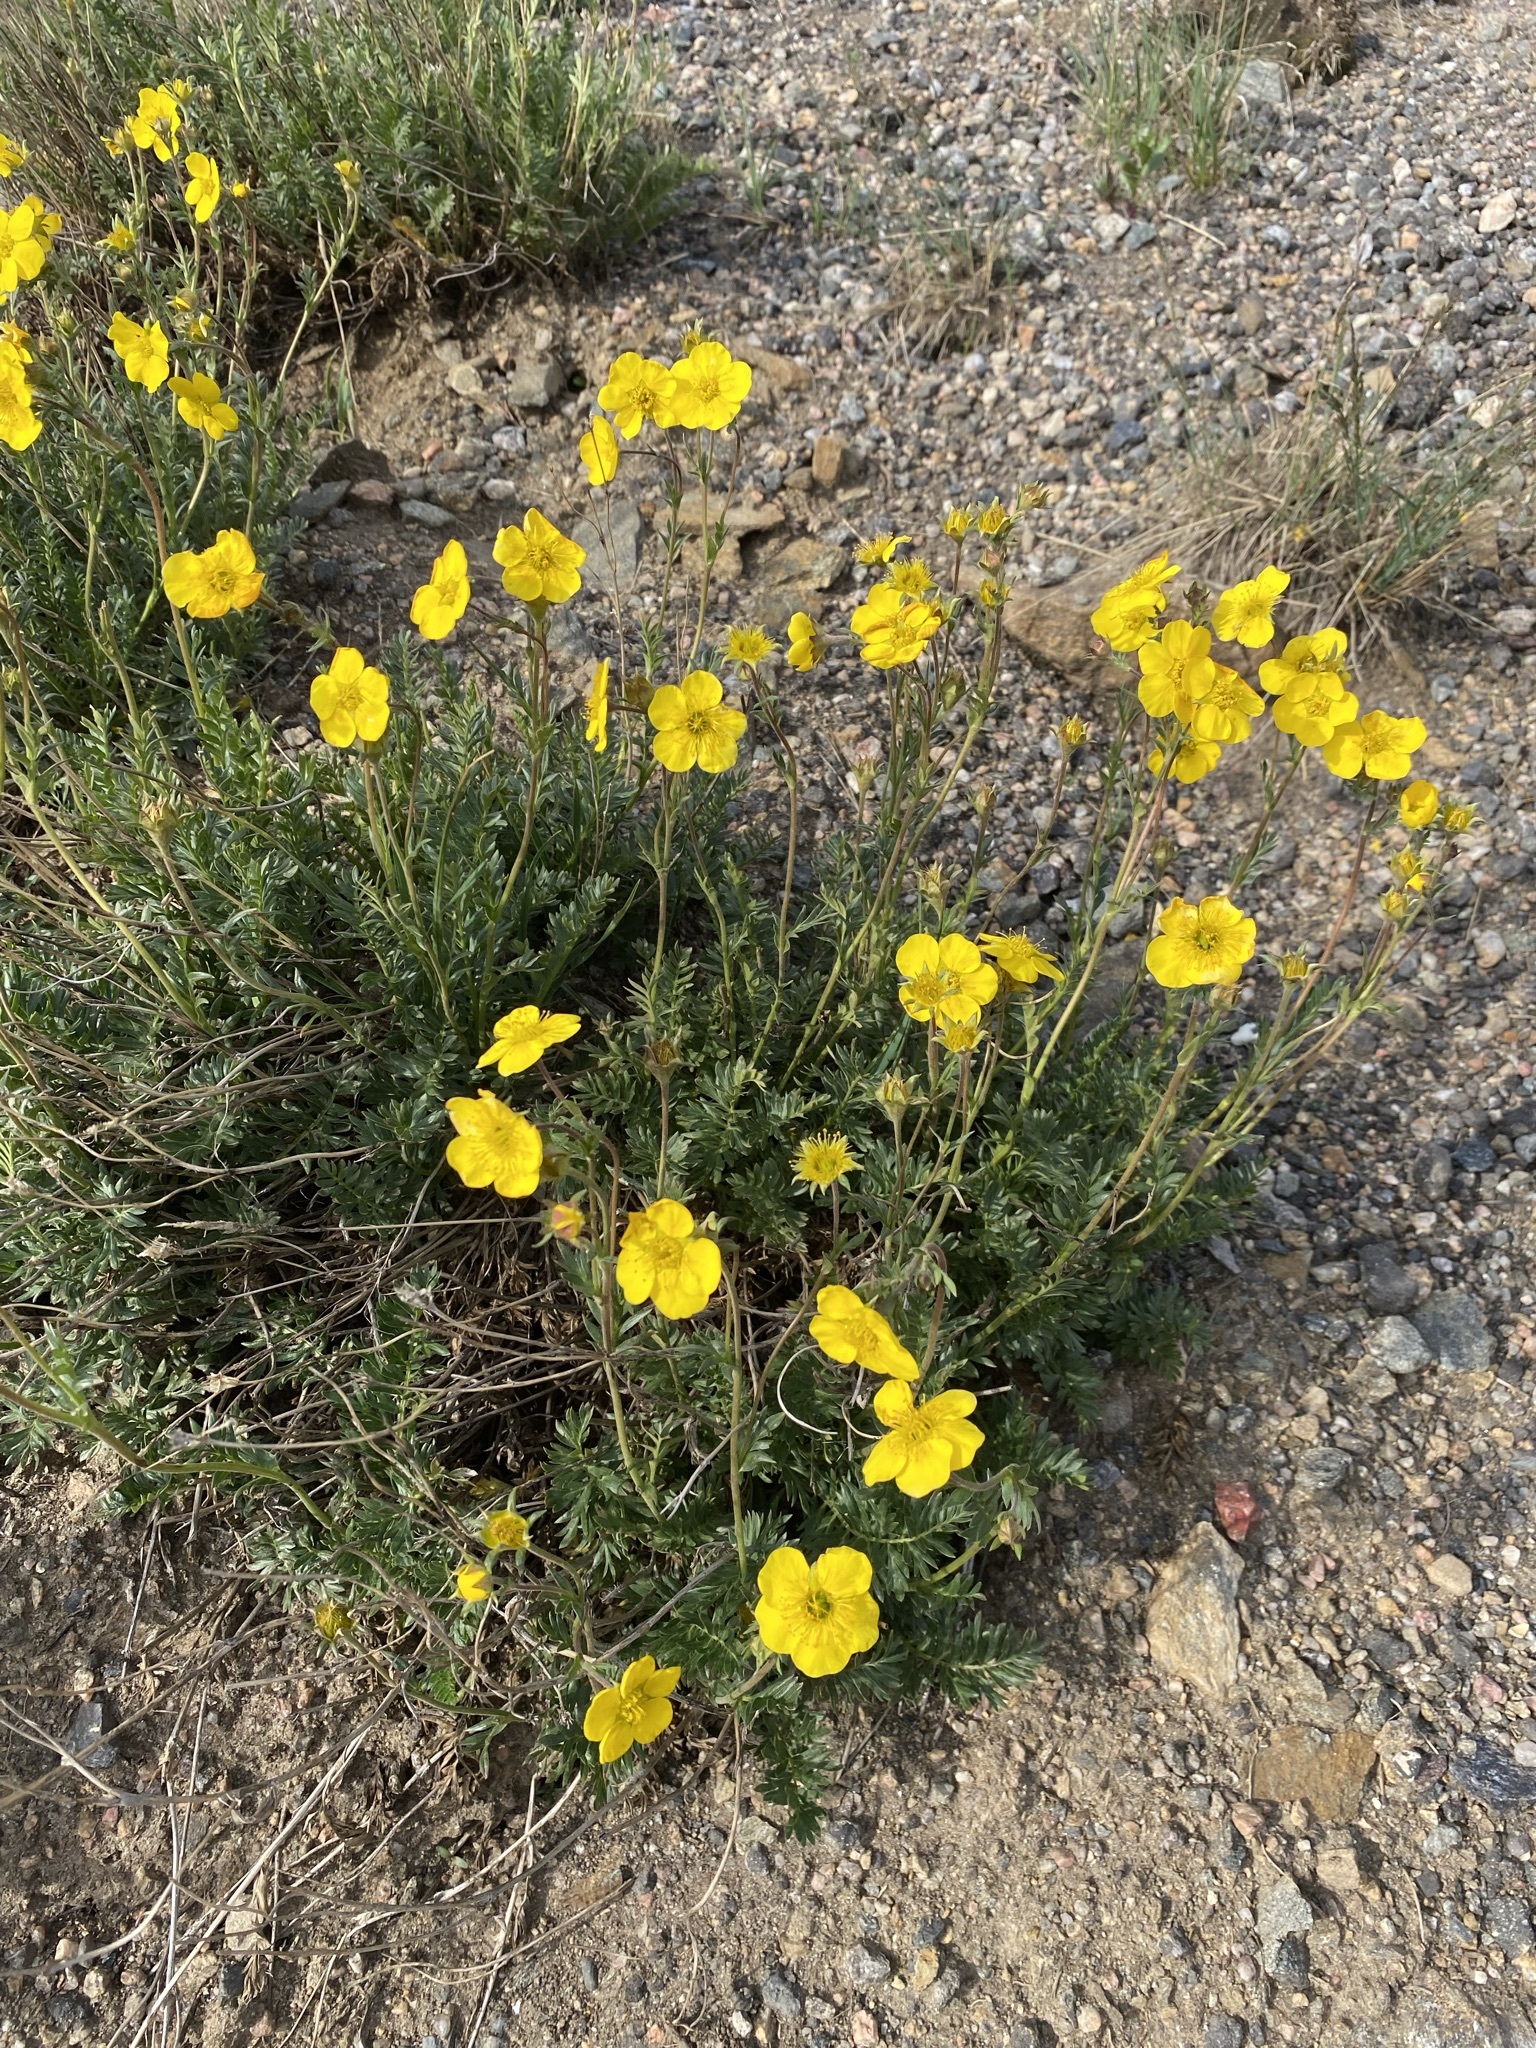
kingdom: Plantae
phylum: Tracheophyta
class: Magnoliopsida
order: Rosales
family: Rosaceae
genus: Geum
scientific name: Geum rossii
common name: Alpine avens
